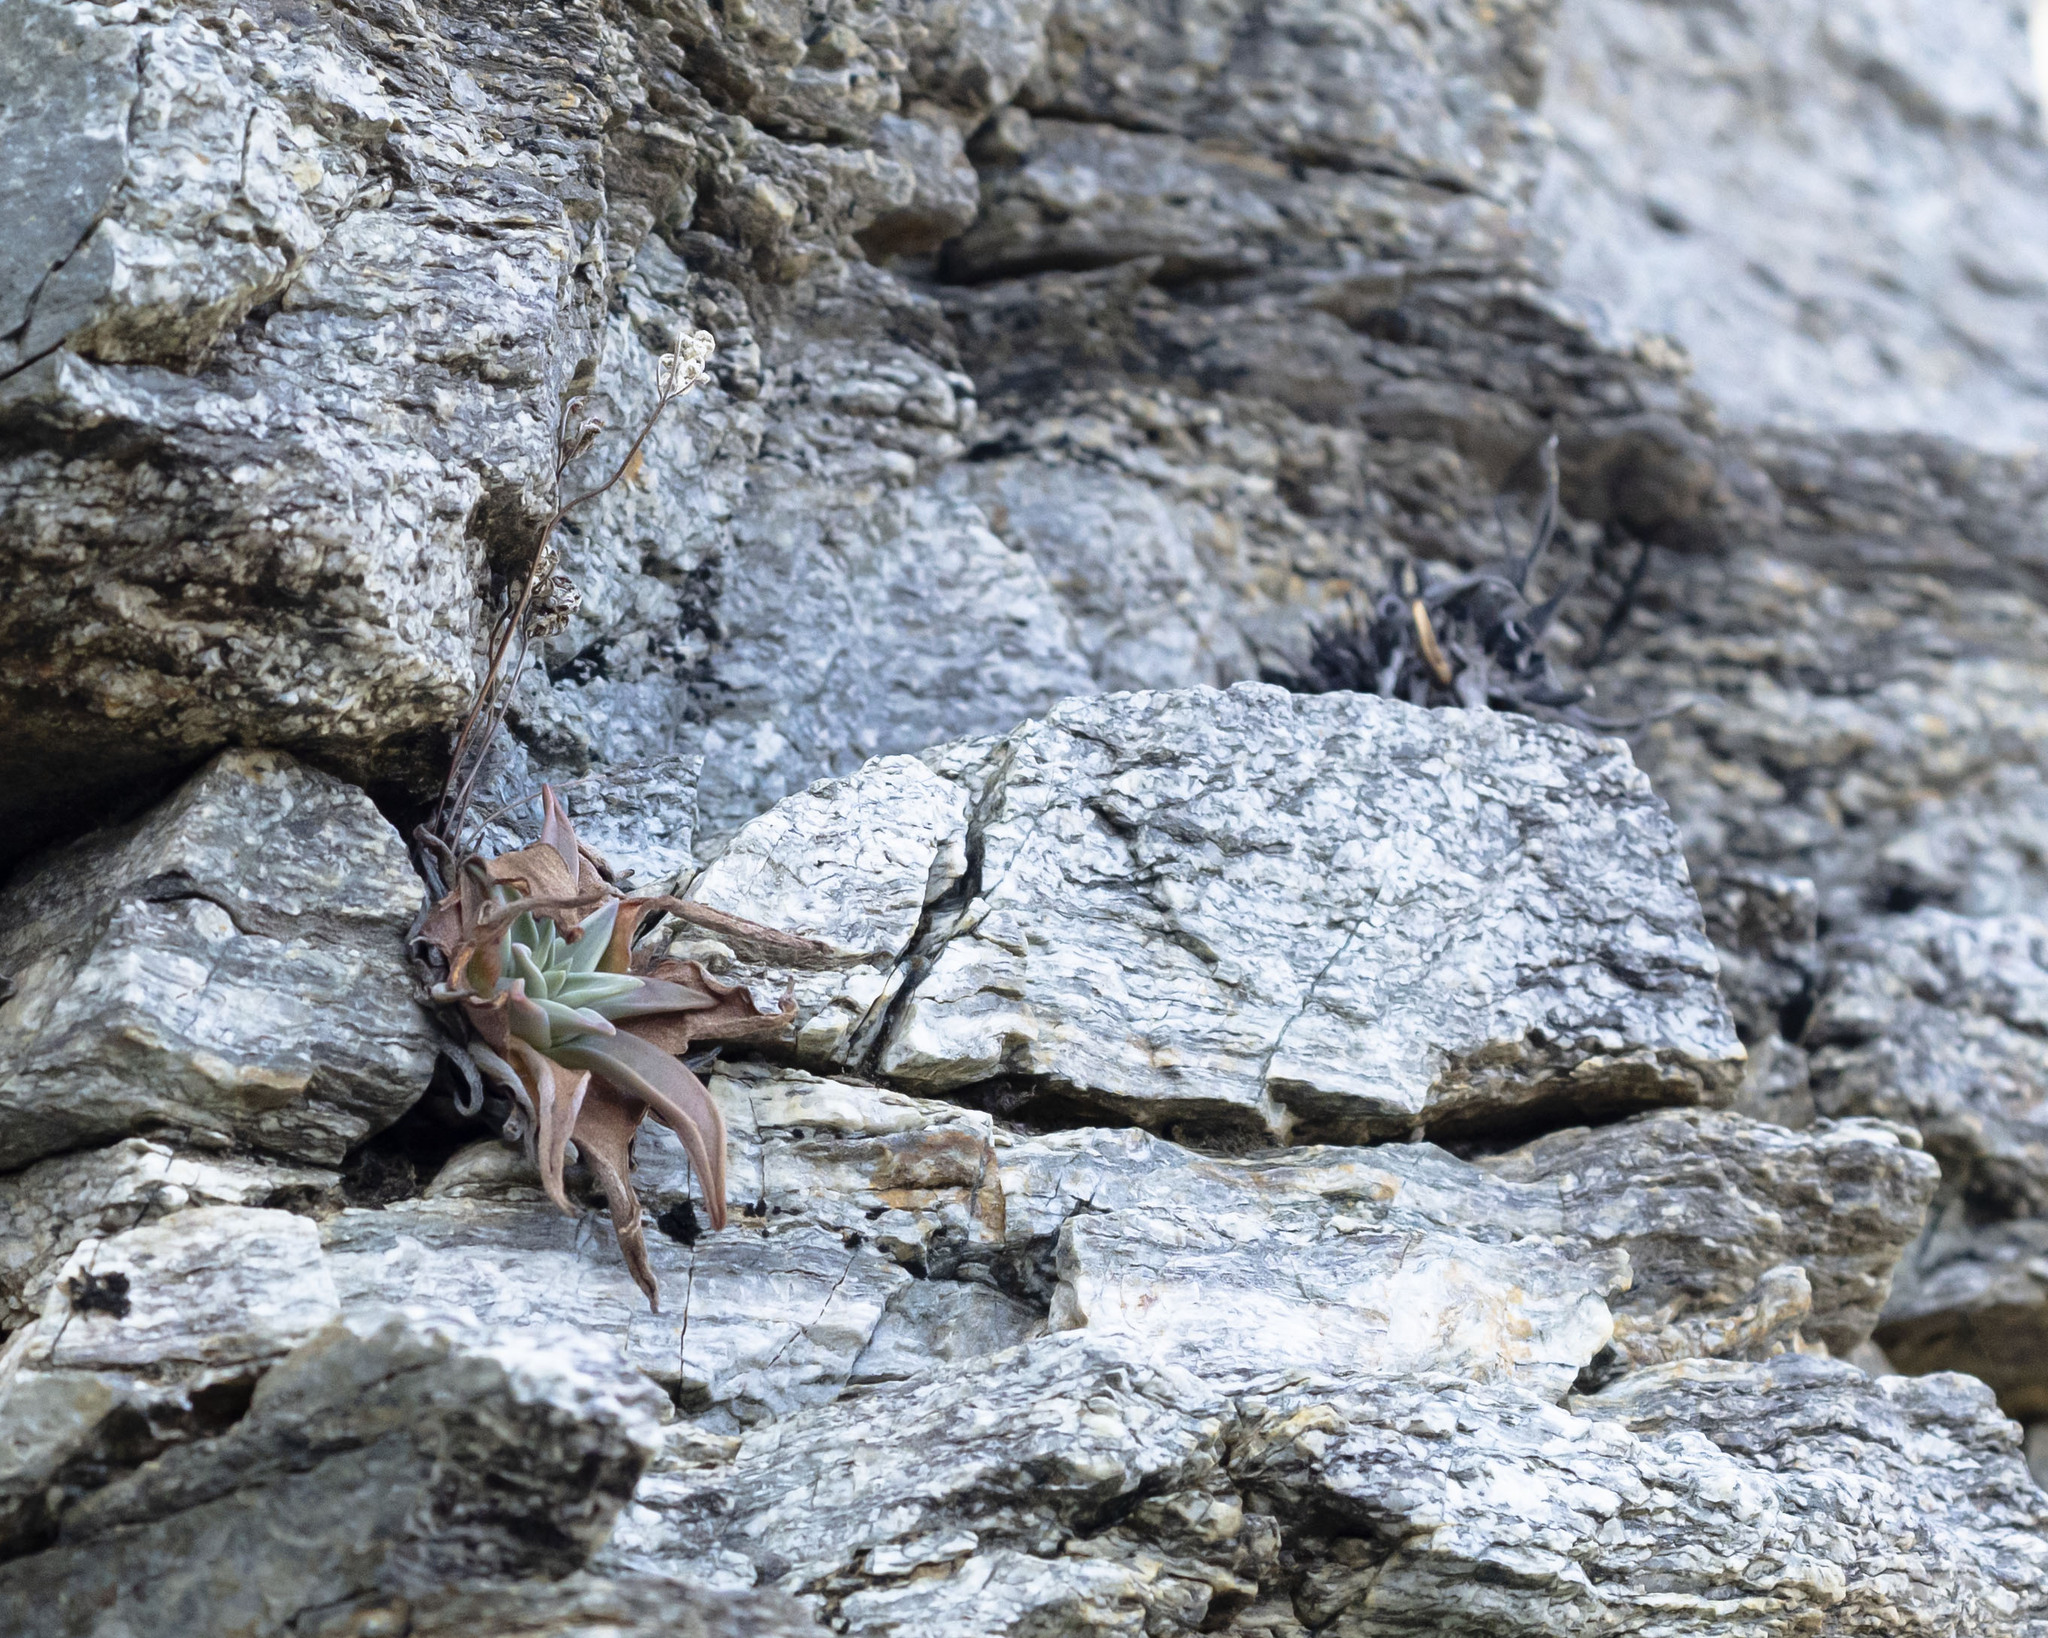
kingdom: Plantae
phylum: Tracheophyta
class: Magnoliopsida
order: Saxifragales
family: Crassulaceae
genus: Dudleya
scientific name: Dudleya nubigena
